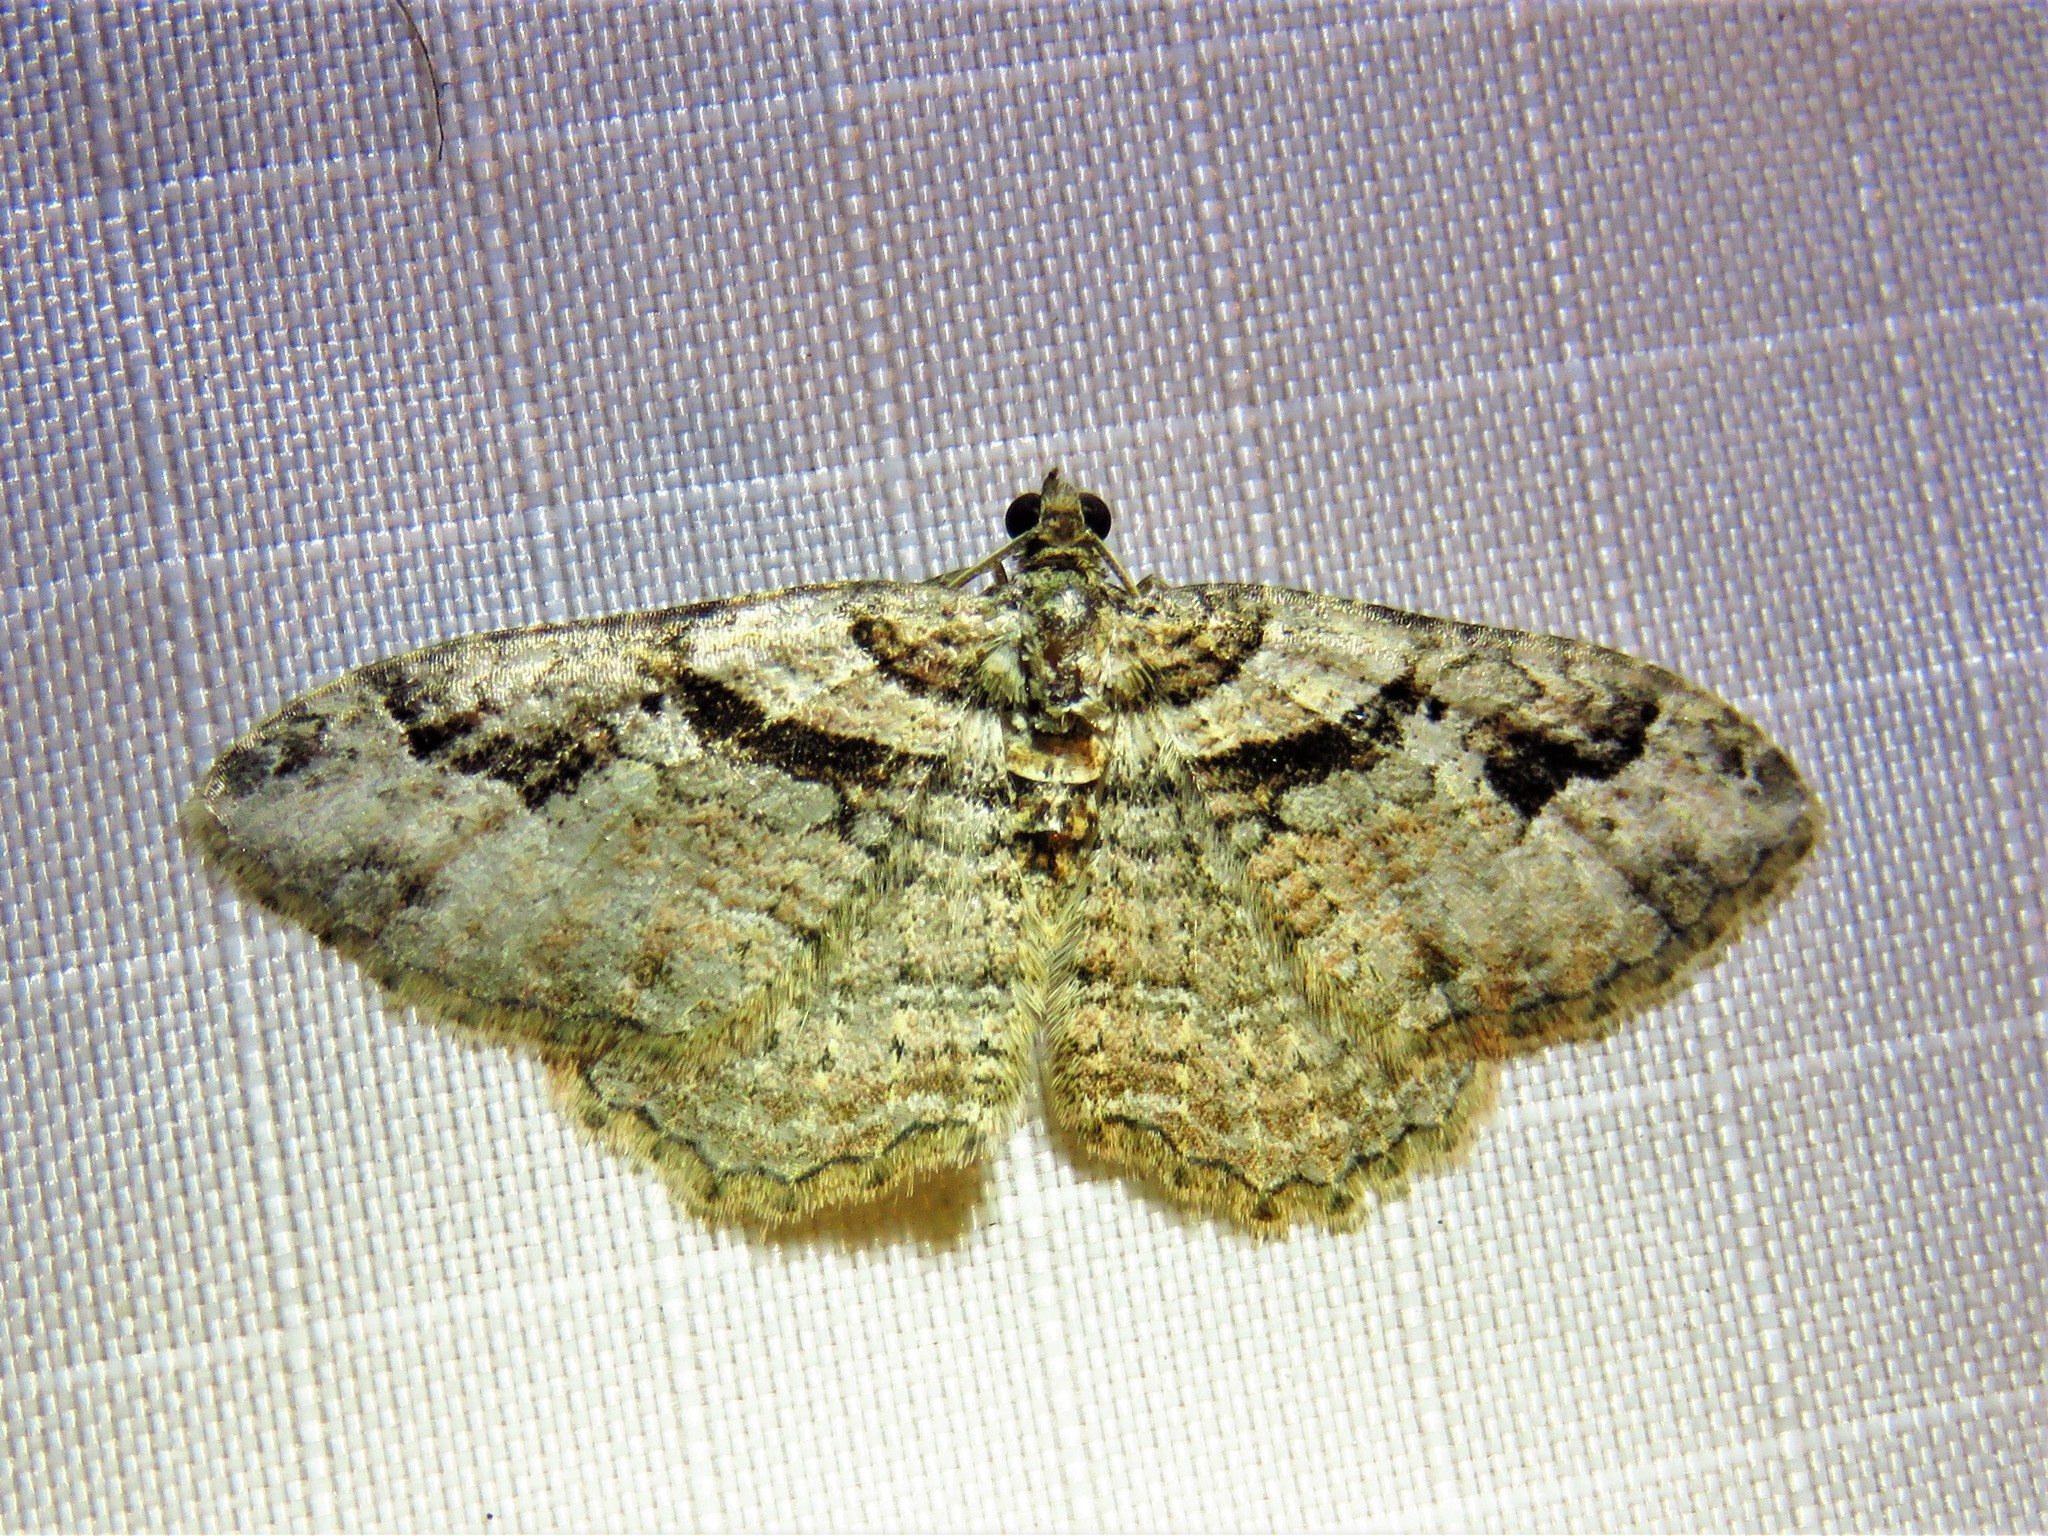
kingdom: Animalia
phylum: Arthropoda
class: Insecta
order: Lepidoptera
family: Geometridae
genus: Costaconvexa
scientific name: Costaconvexa centrostrigaria
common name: Bent-line carpet
